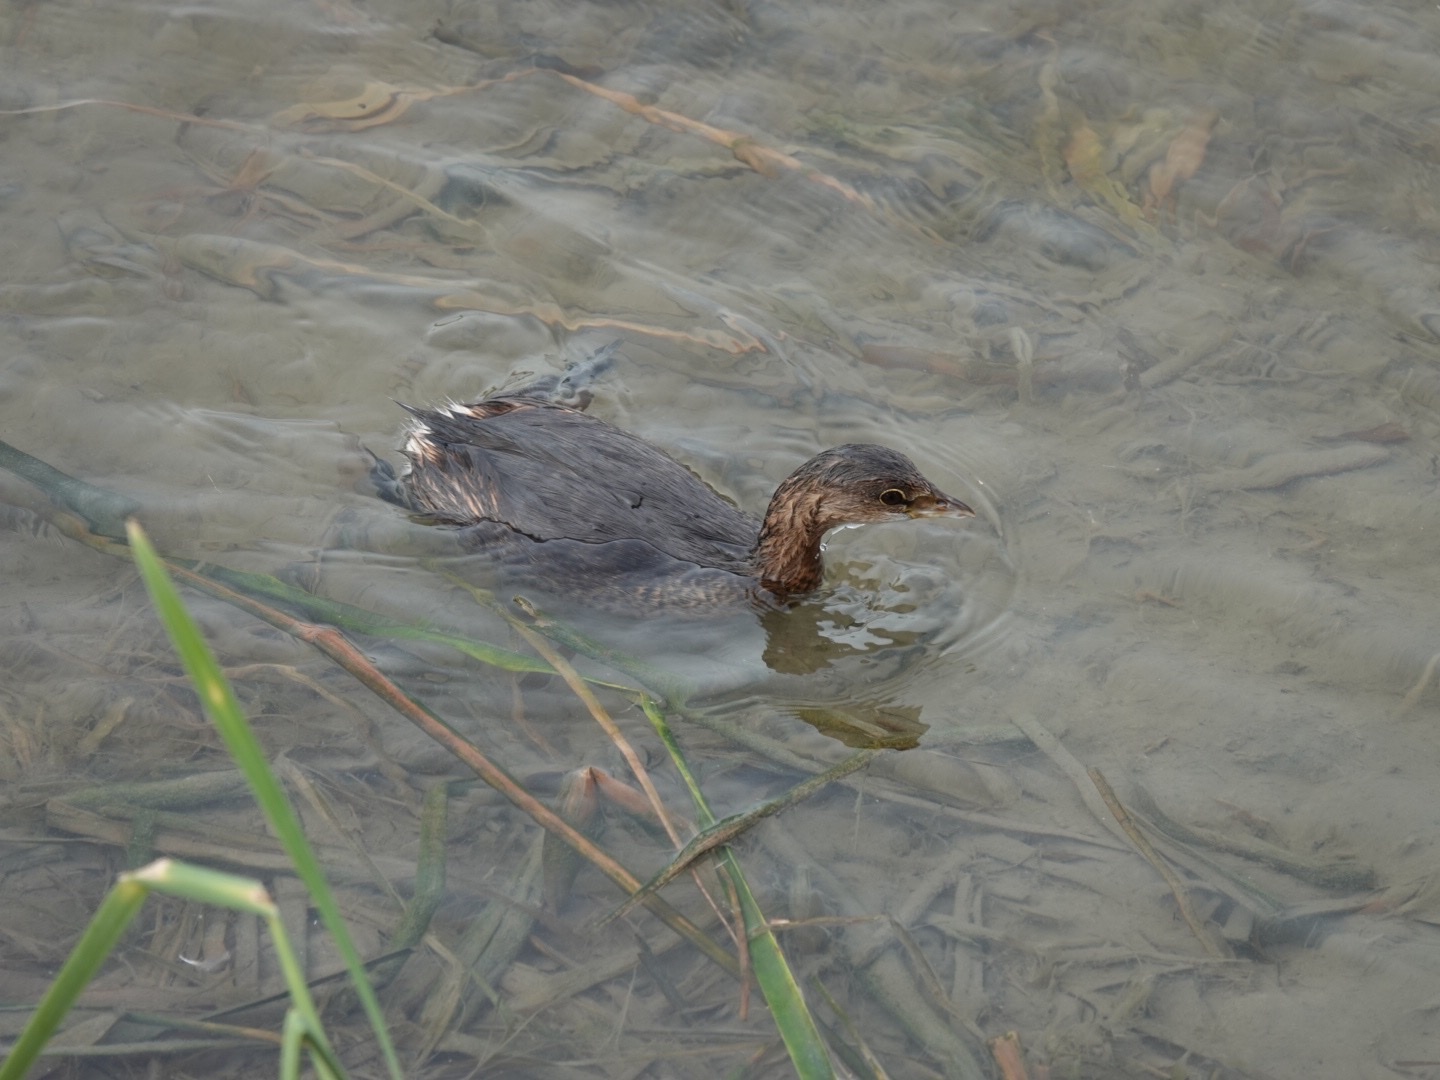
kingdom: Animalia
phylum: Chordata
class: Aves
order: Podicipediformes
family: Podicipedidae
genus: Podilymbus
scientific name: Podilymbus podiceps
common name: Pied-billed grebe
